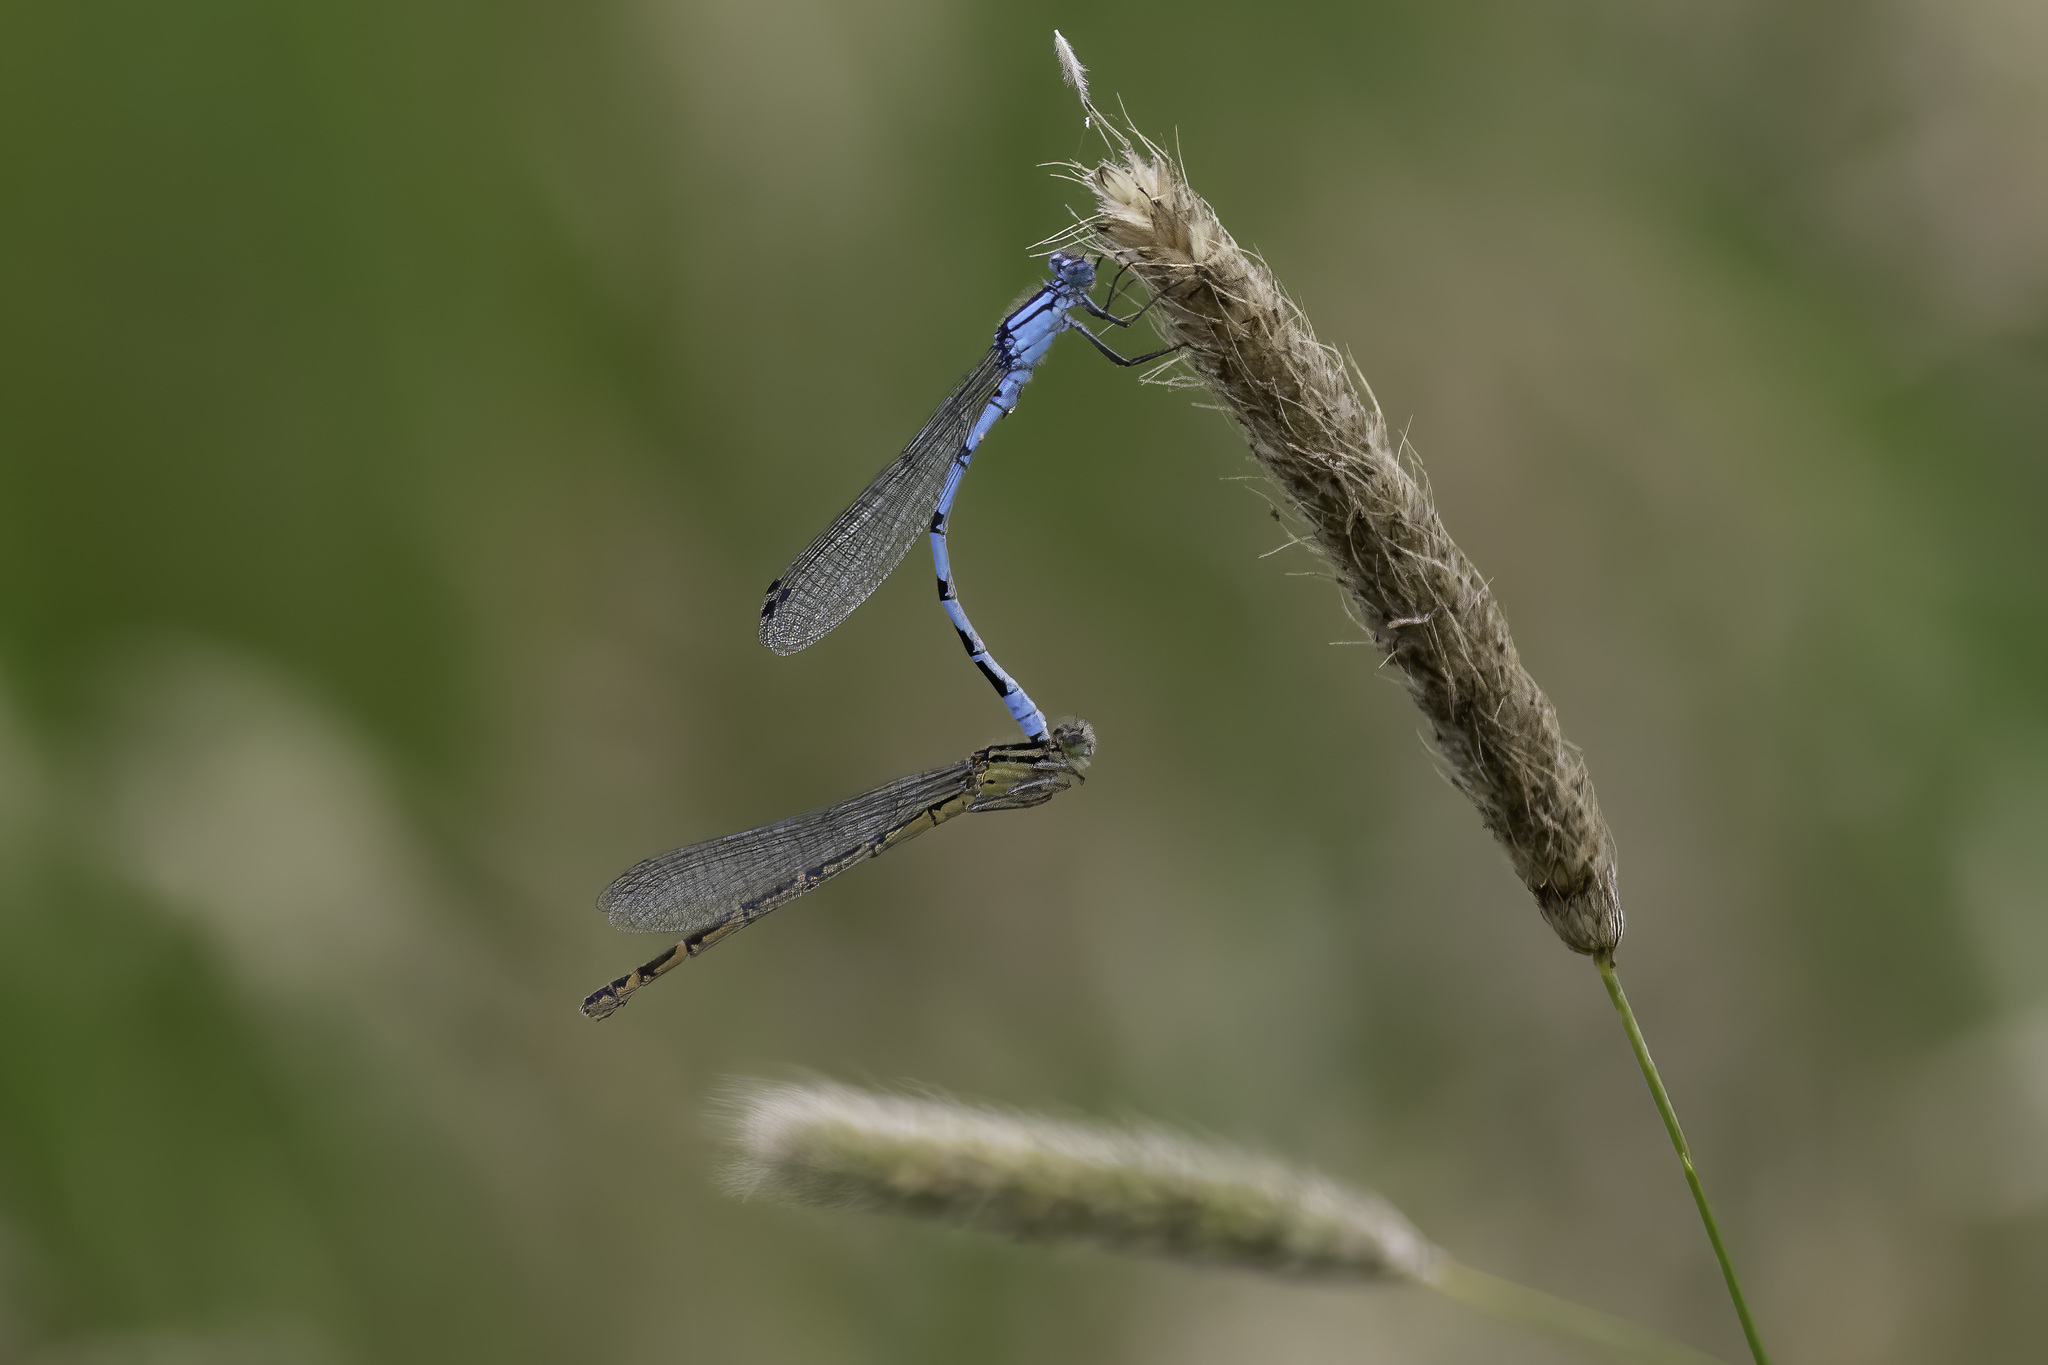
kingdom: Animalia
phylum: Arthropoda
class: Insecta
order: Odonata
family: Coenagrionidae
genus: Enallagma
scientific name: Enallagma cyathigerum
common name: Common blue damselfly
